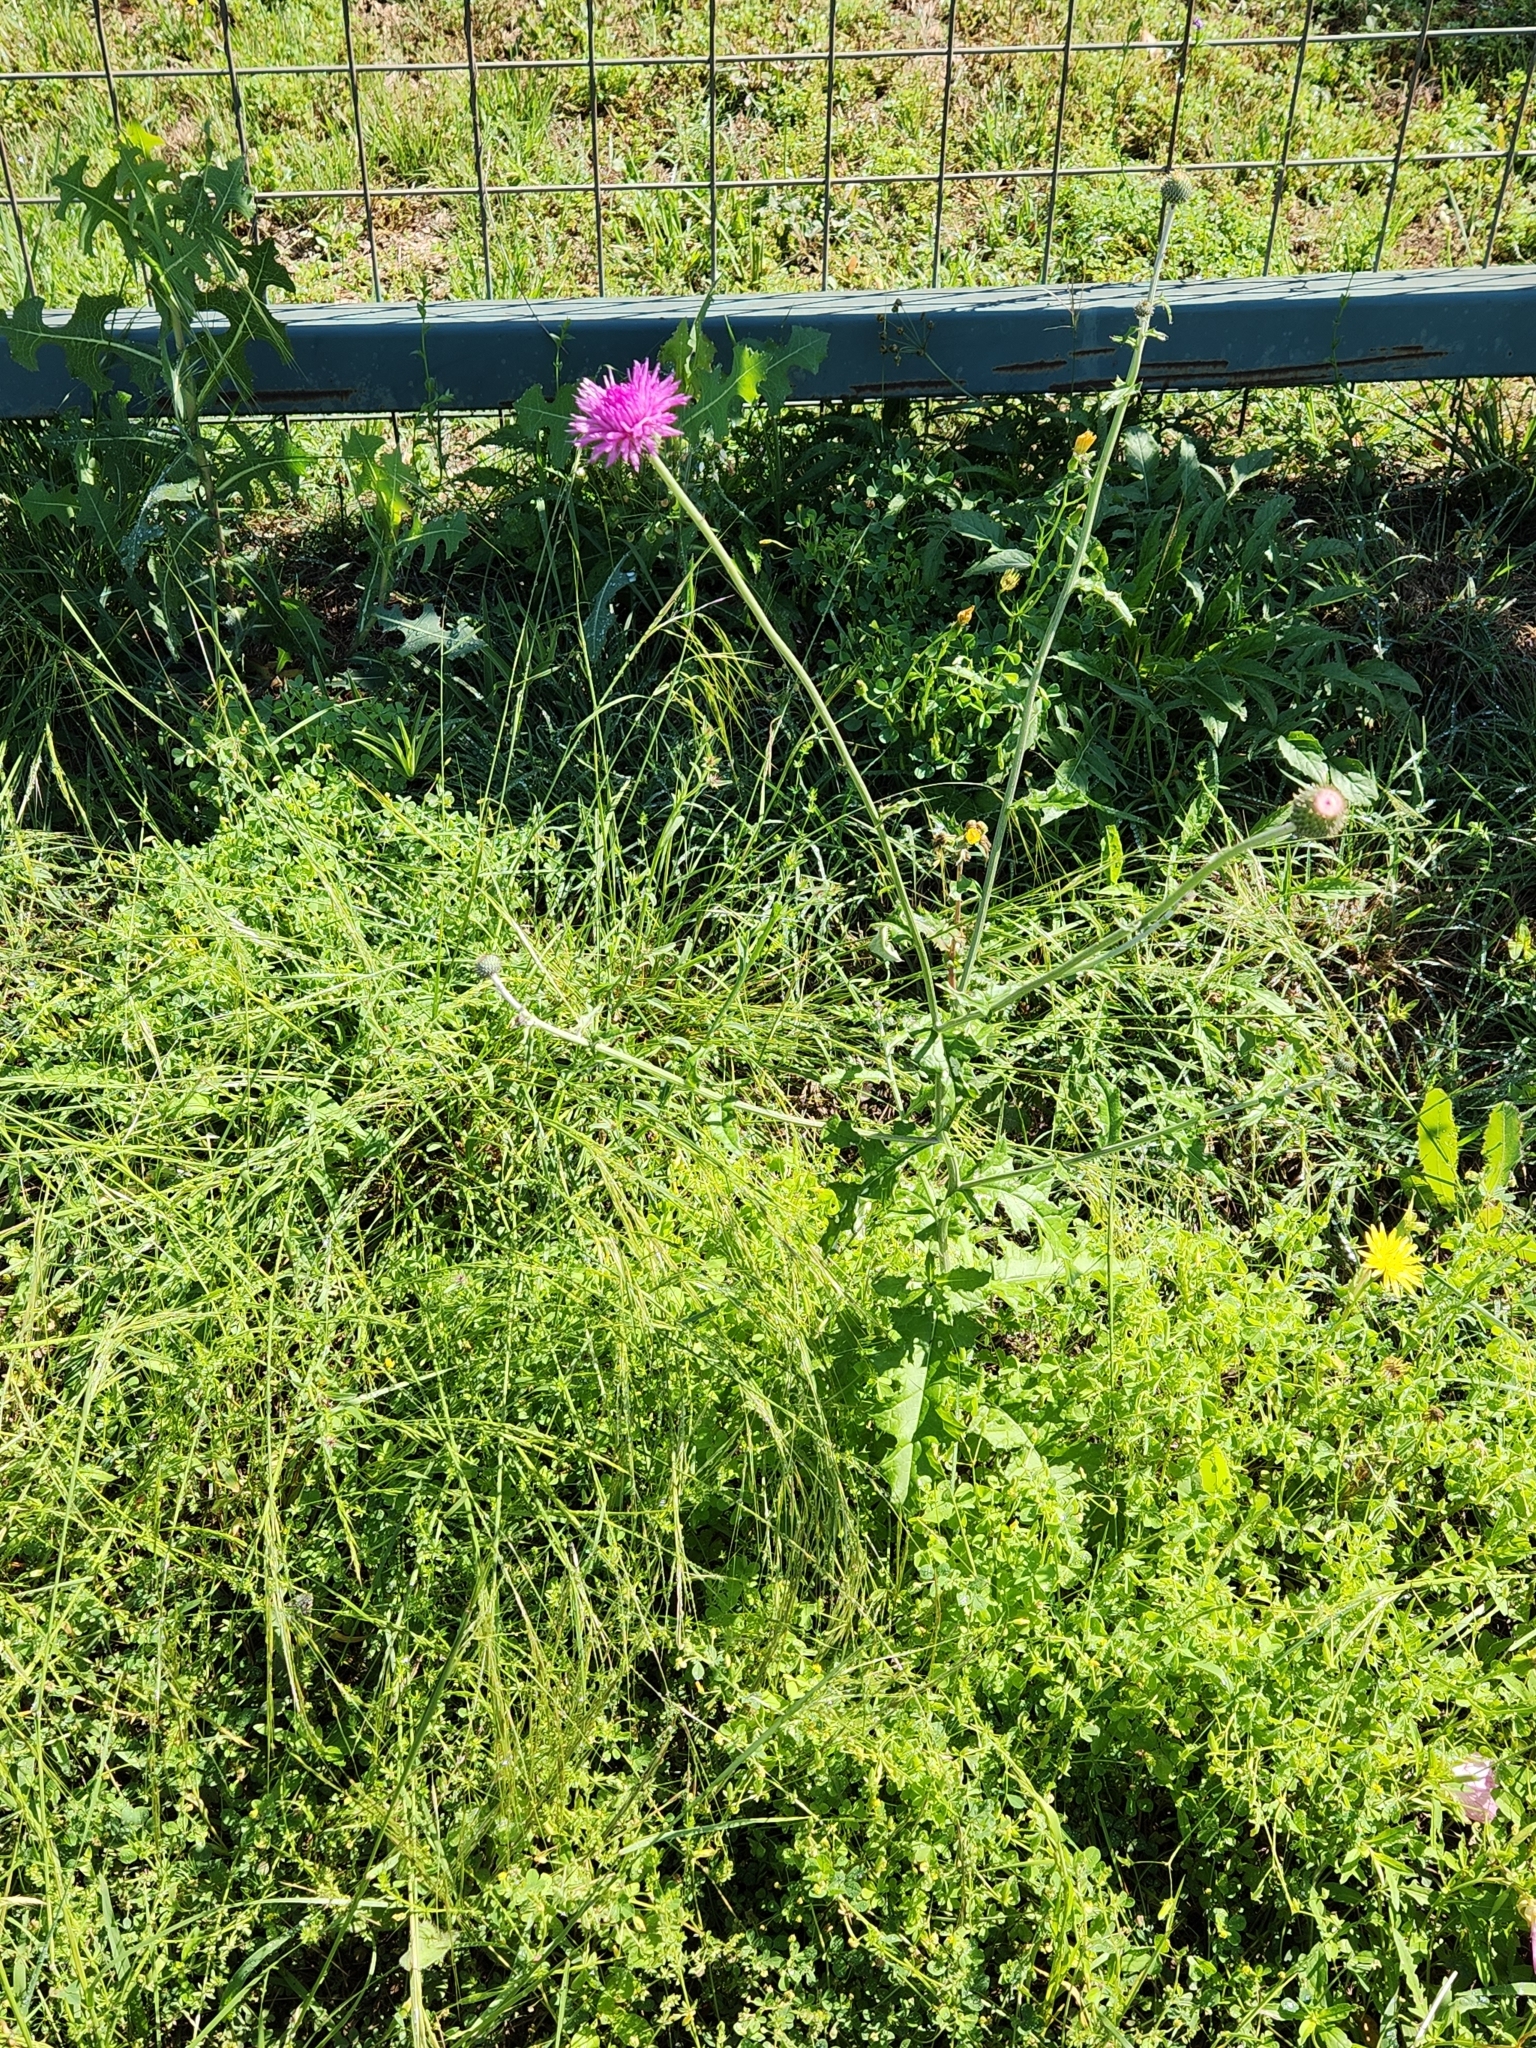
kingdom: Plantae
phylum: Tracheophyta
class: Magnoliopsida
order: Asterales
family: Asteraceae
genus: Cirsium
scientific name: Cirsium texanum
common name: Texas purple thistle
